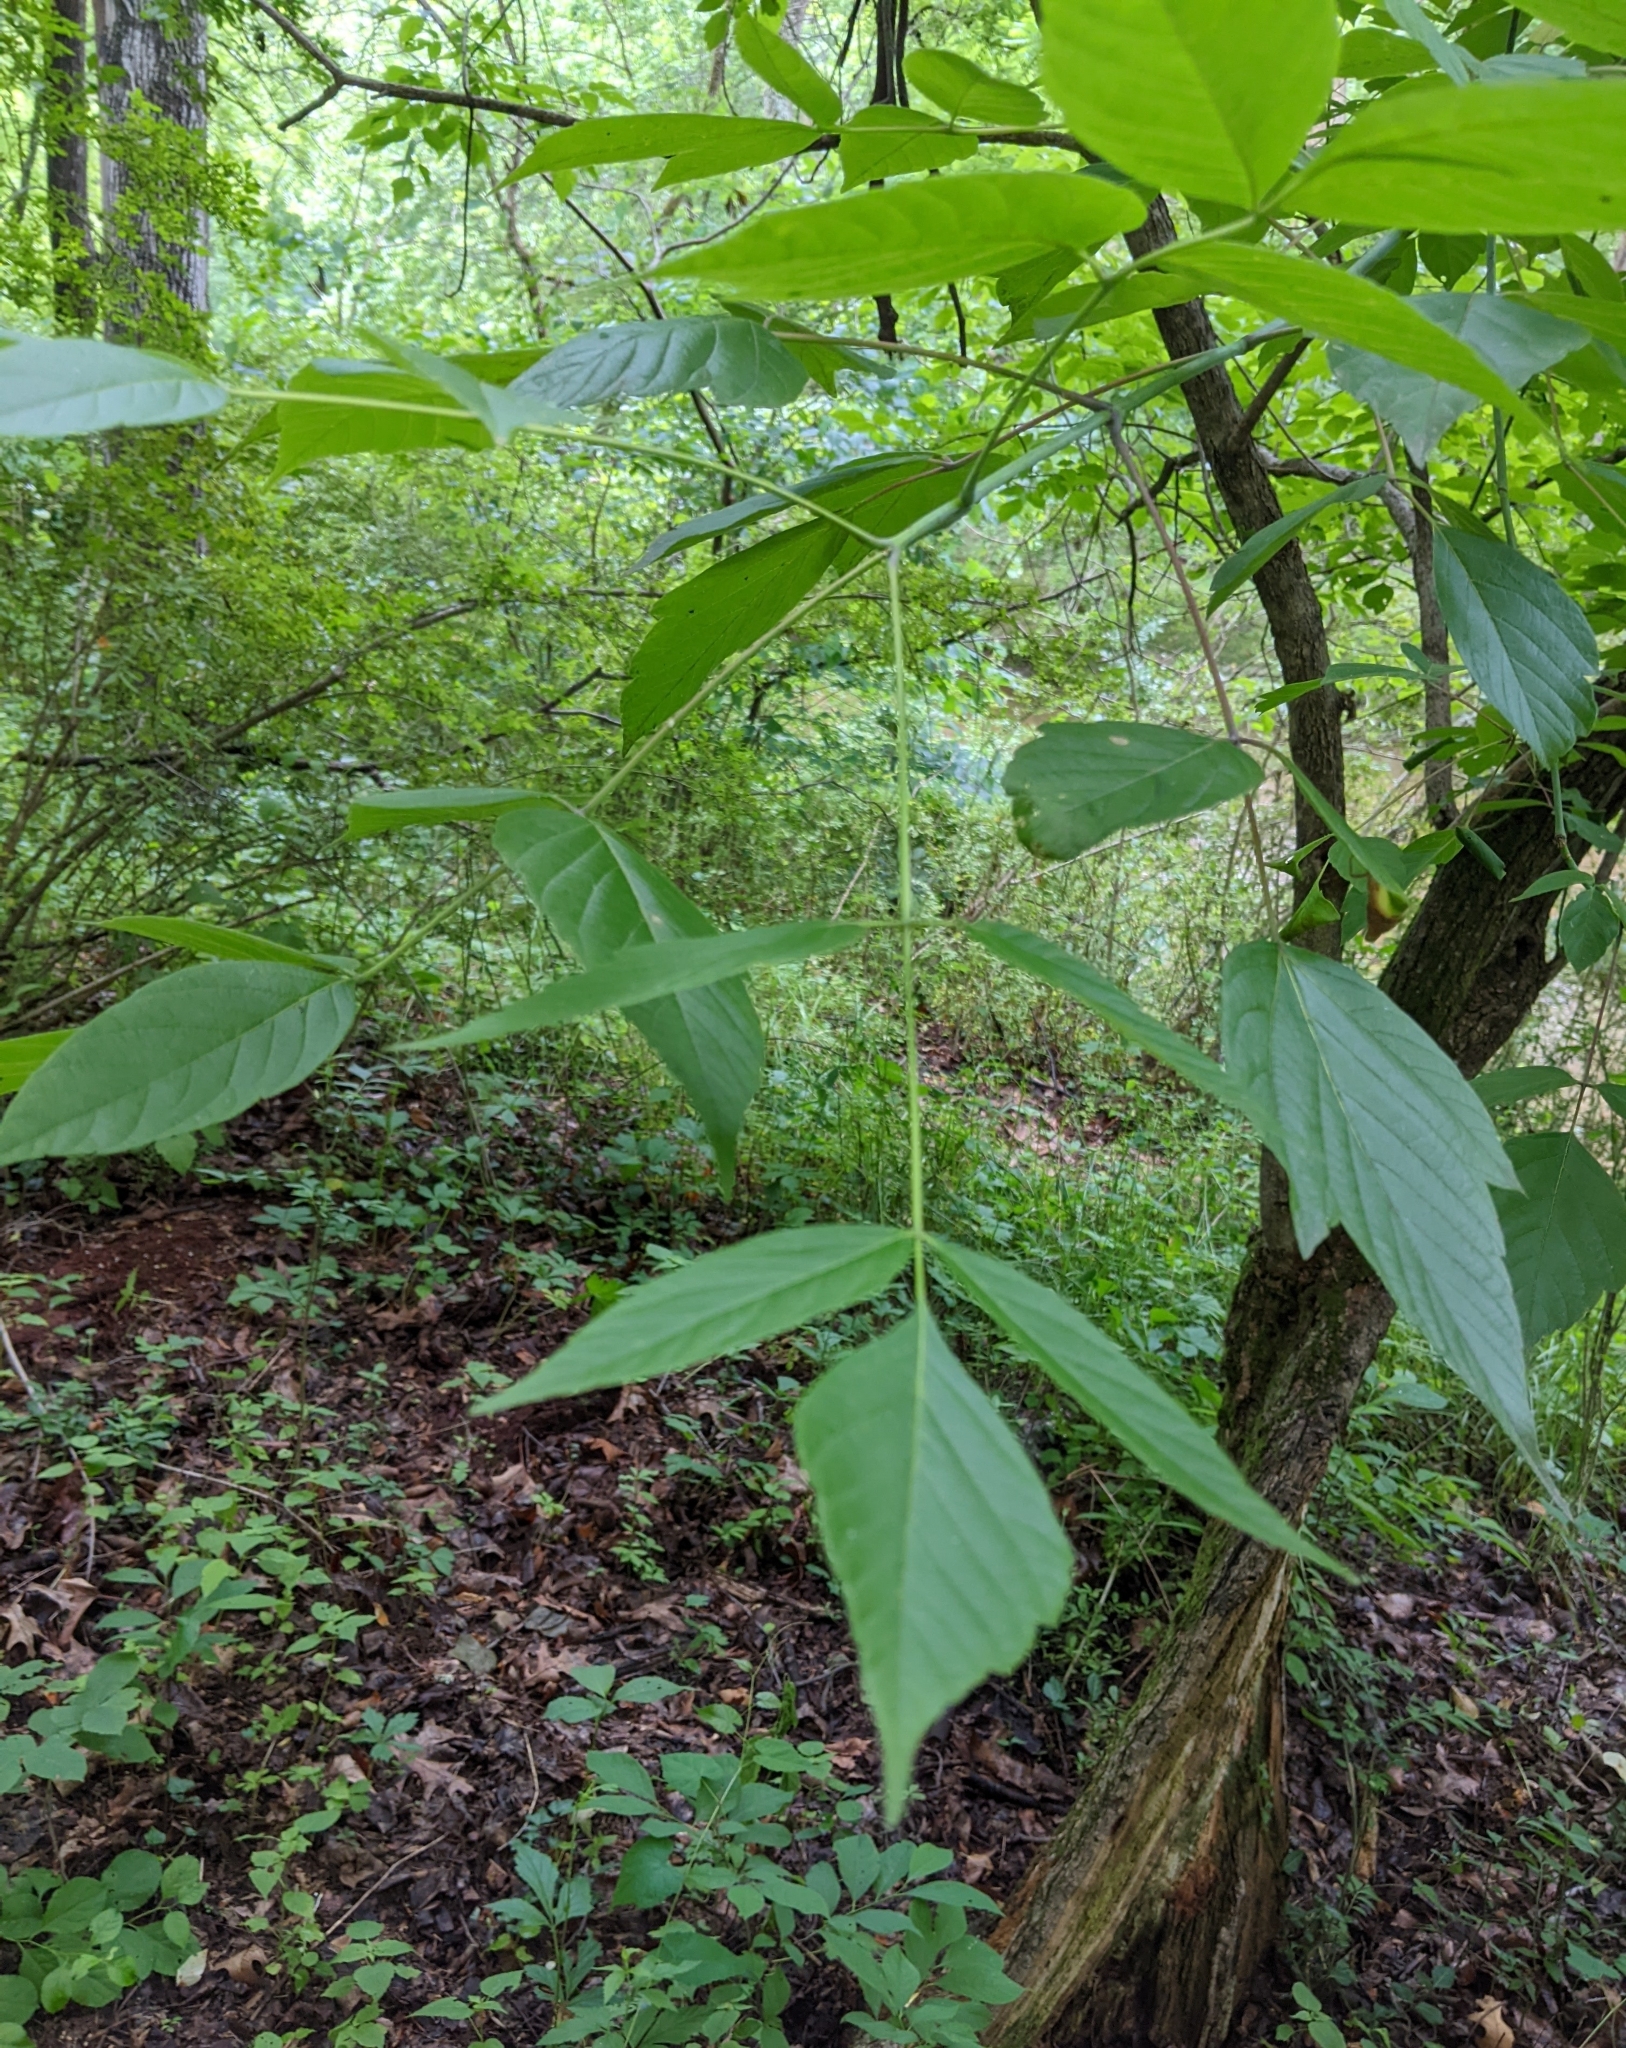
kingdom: Plantae
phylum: Tracheophyta
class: Magnoliopsida
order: Sapindales
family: Sapindaceae
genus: Acer
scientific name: Acer negundo
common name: Ashleaf maple
